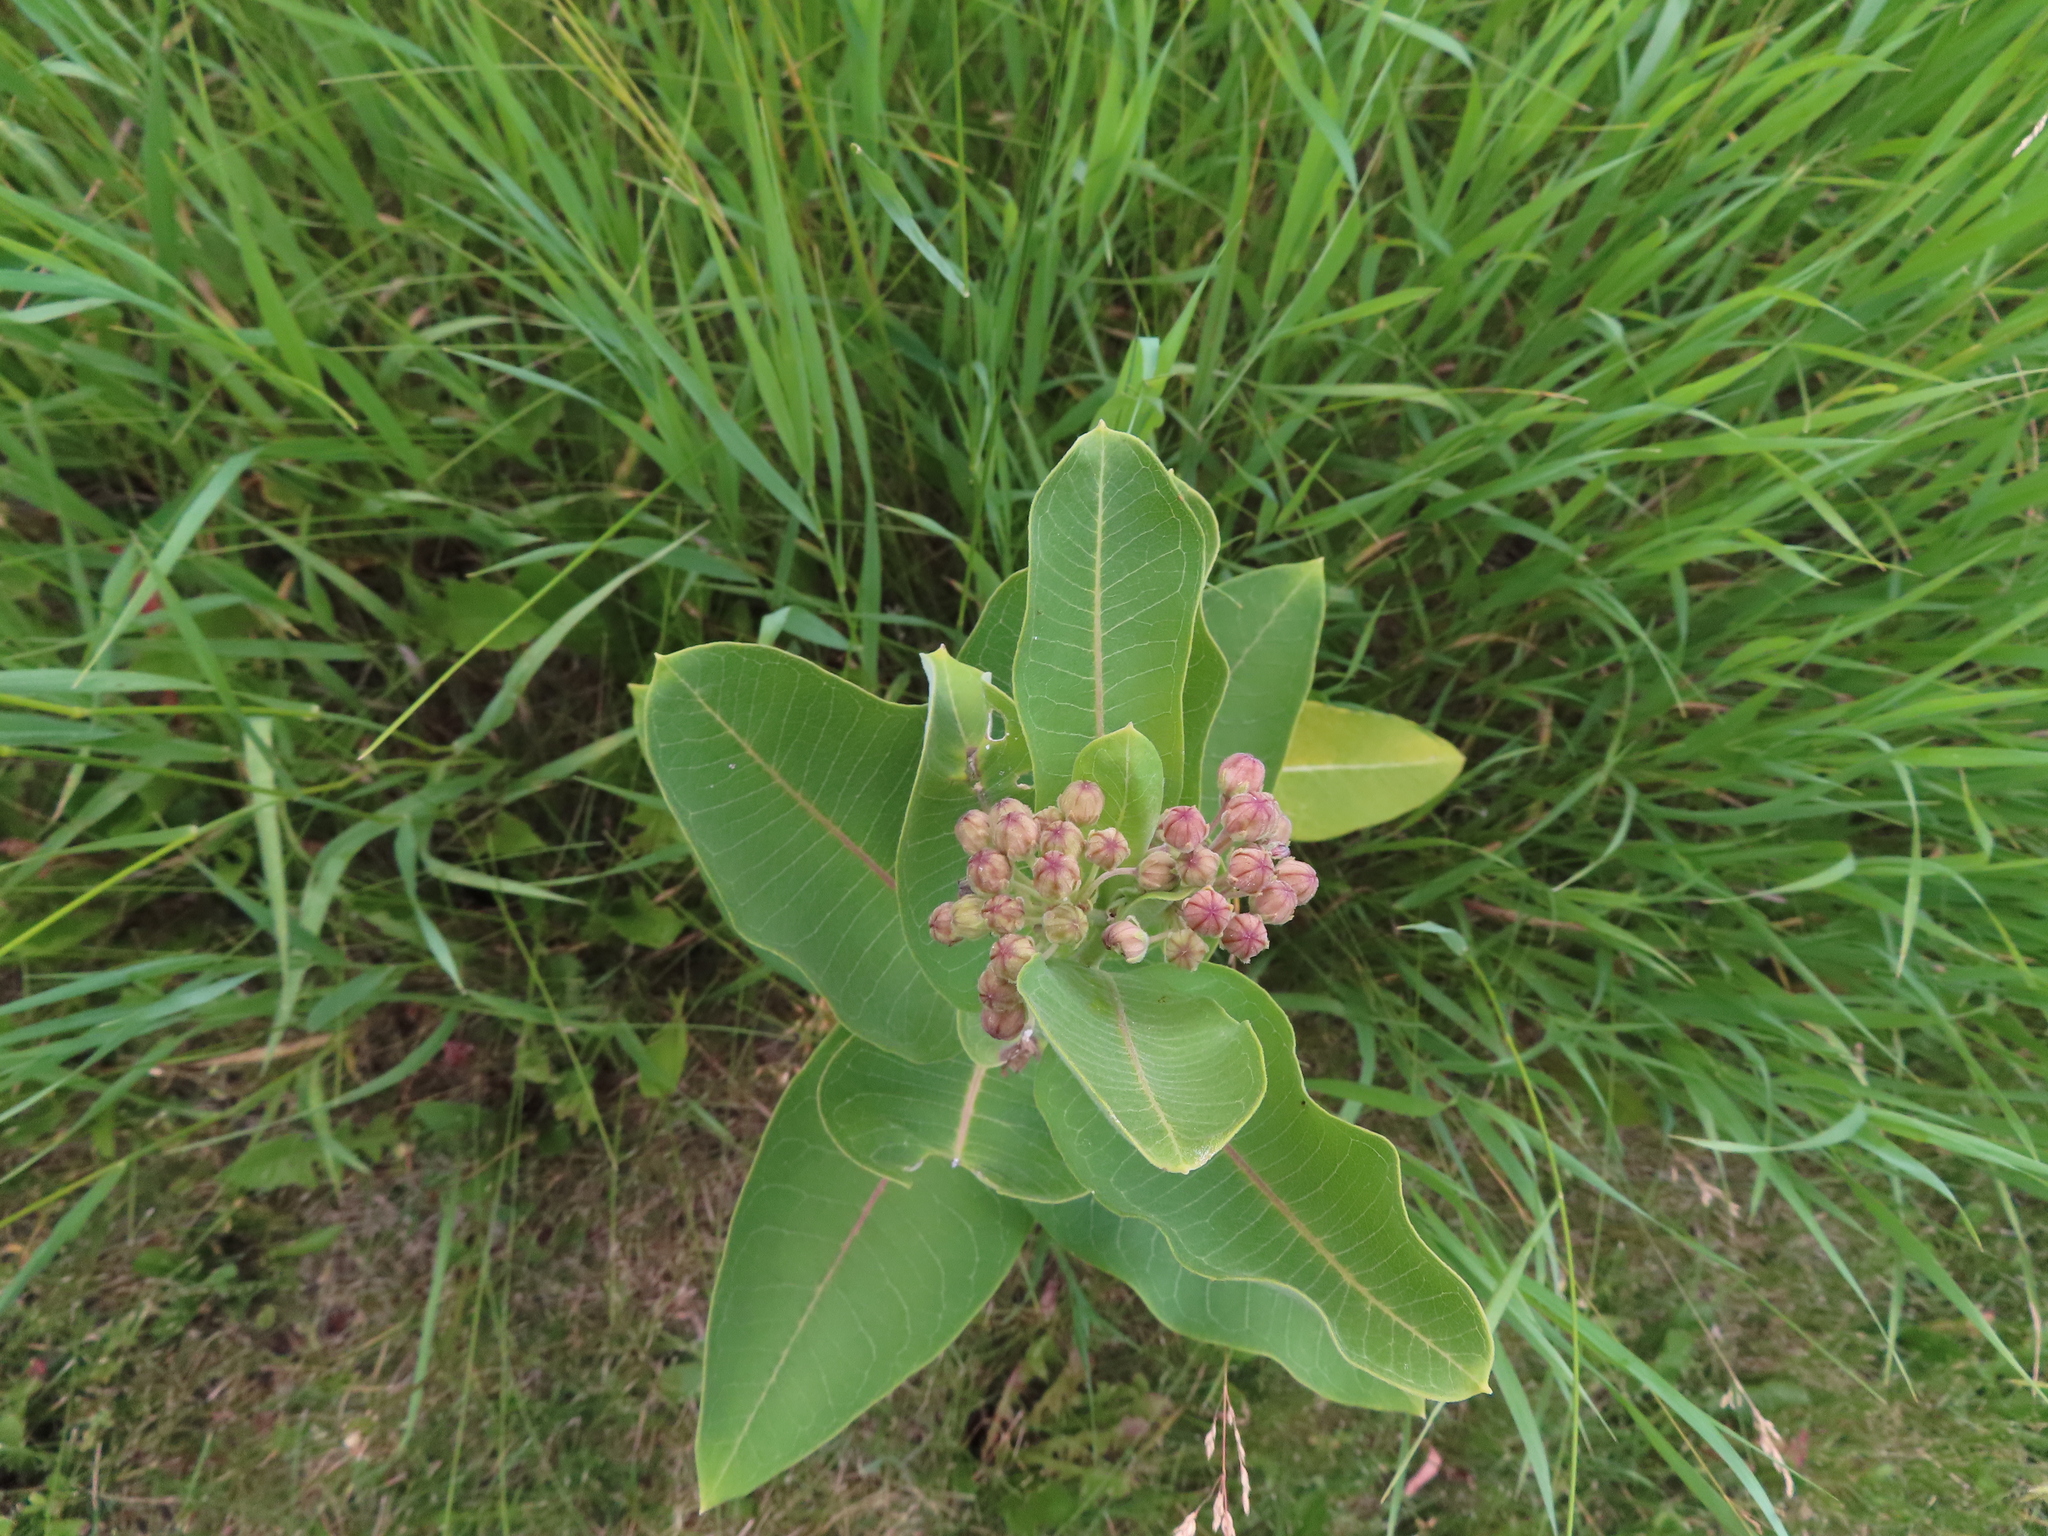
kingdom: Plantae
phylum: Tracheophyta
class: Magnoliopsida
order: Gentianales
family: Apocynaceae
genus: Asclepias
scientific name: Asclepias syriaca
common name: Common milkweed
